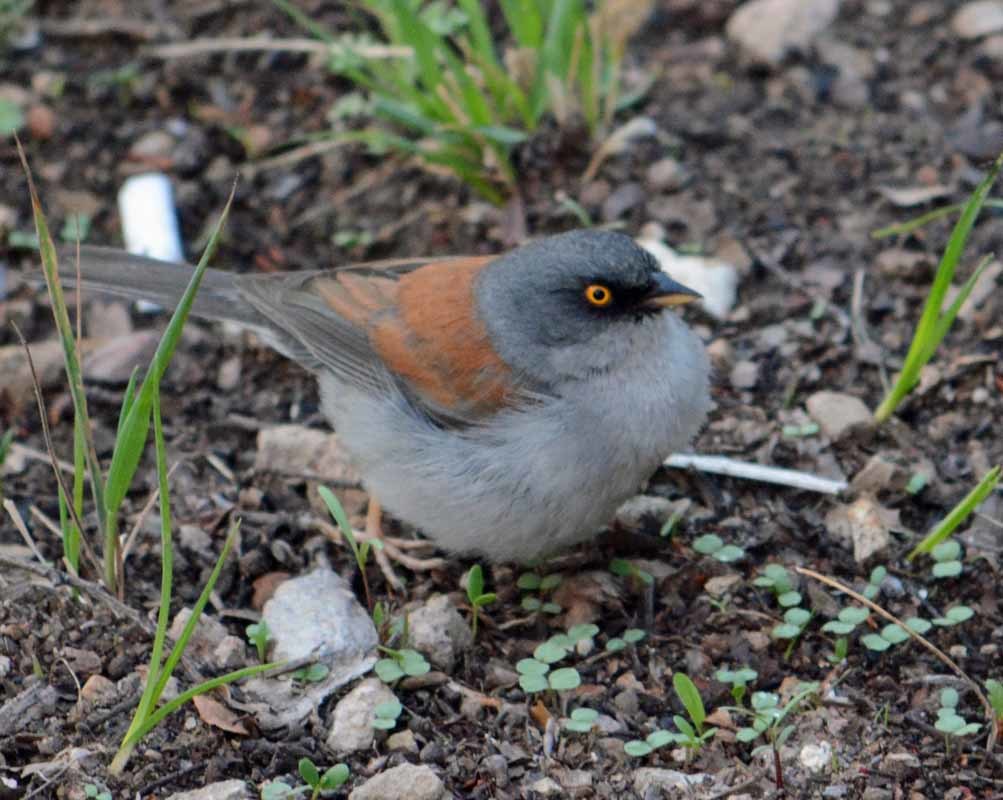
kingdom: Animalia
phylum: Chordata
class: Aves
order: Passeriformes
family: Passerellidae
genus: Junco
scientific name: Junco phaeonotus
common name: Yellow-eyed junco
